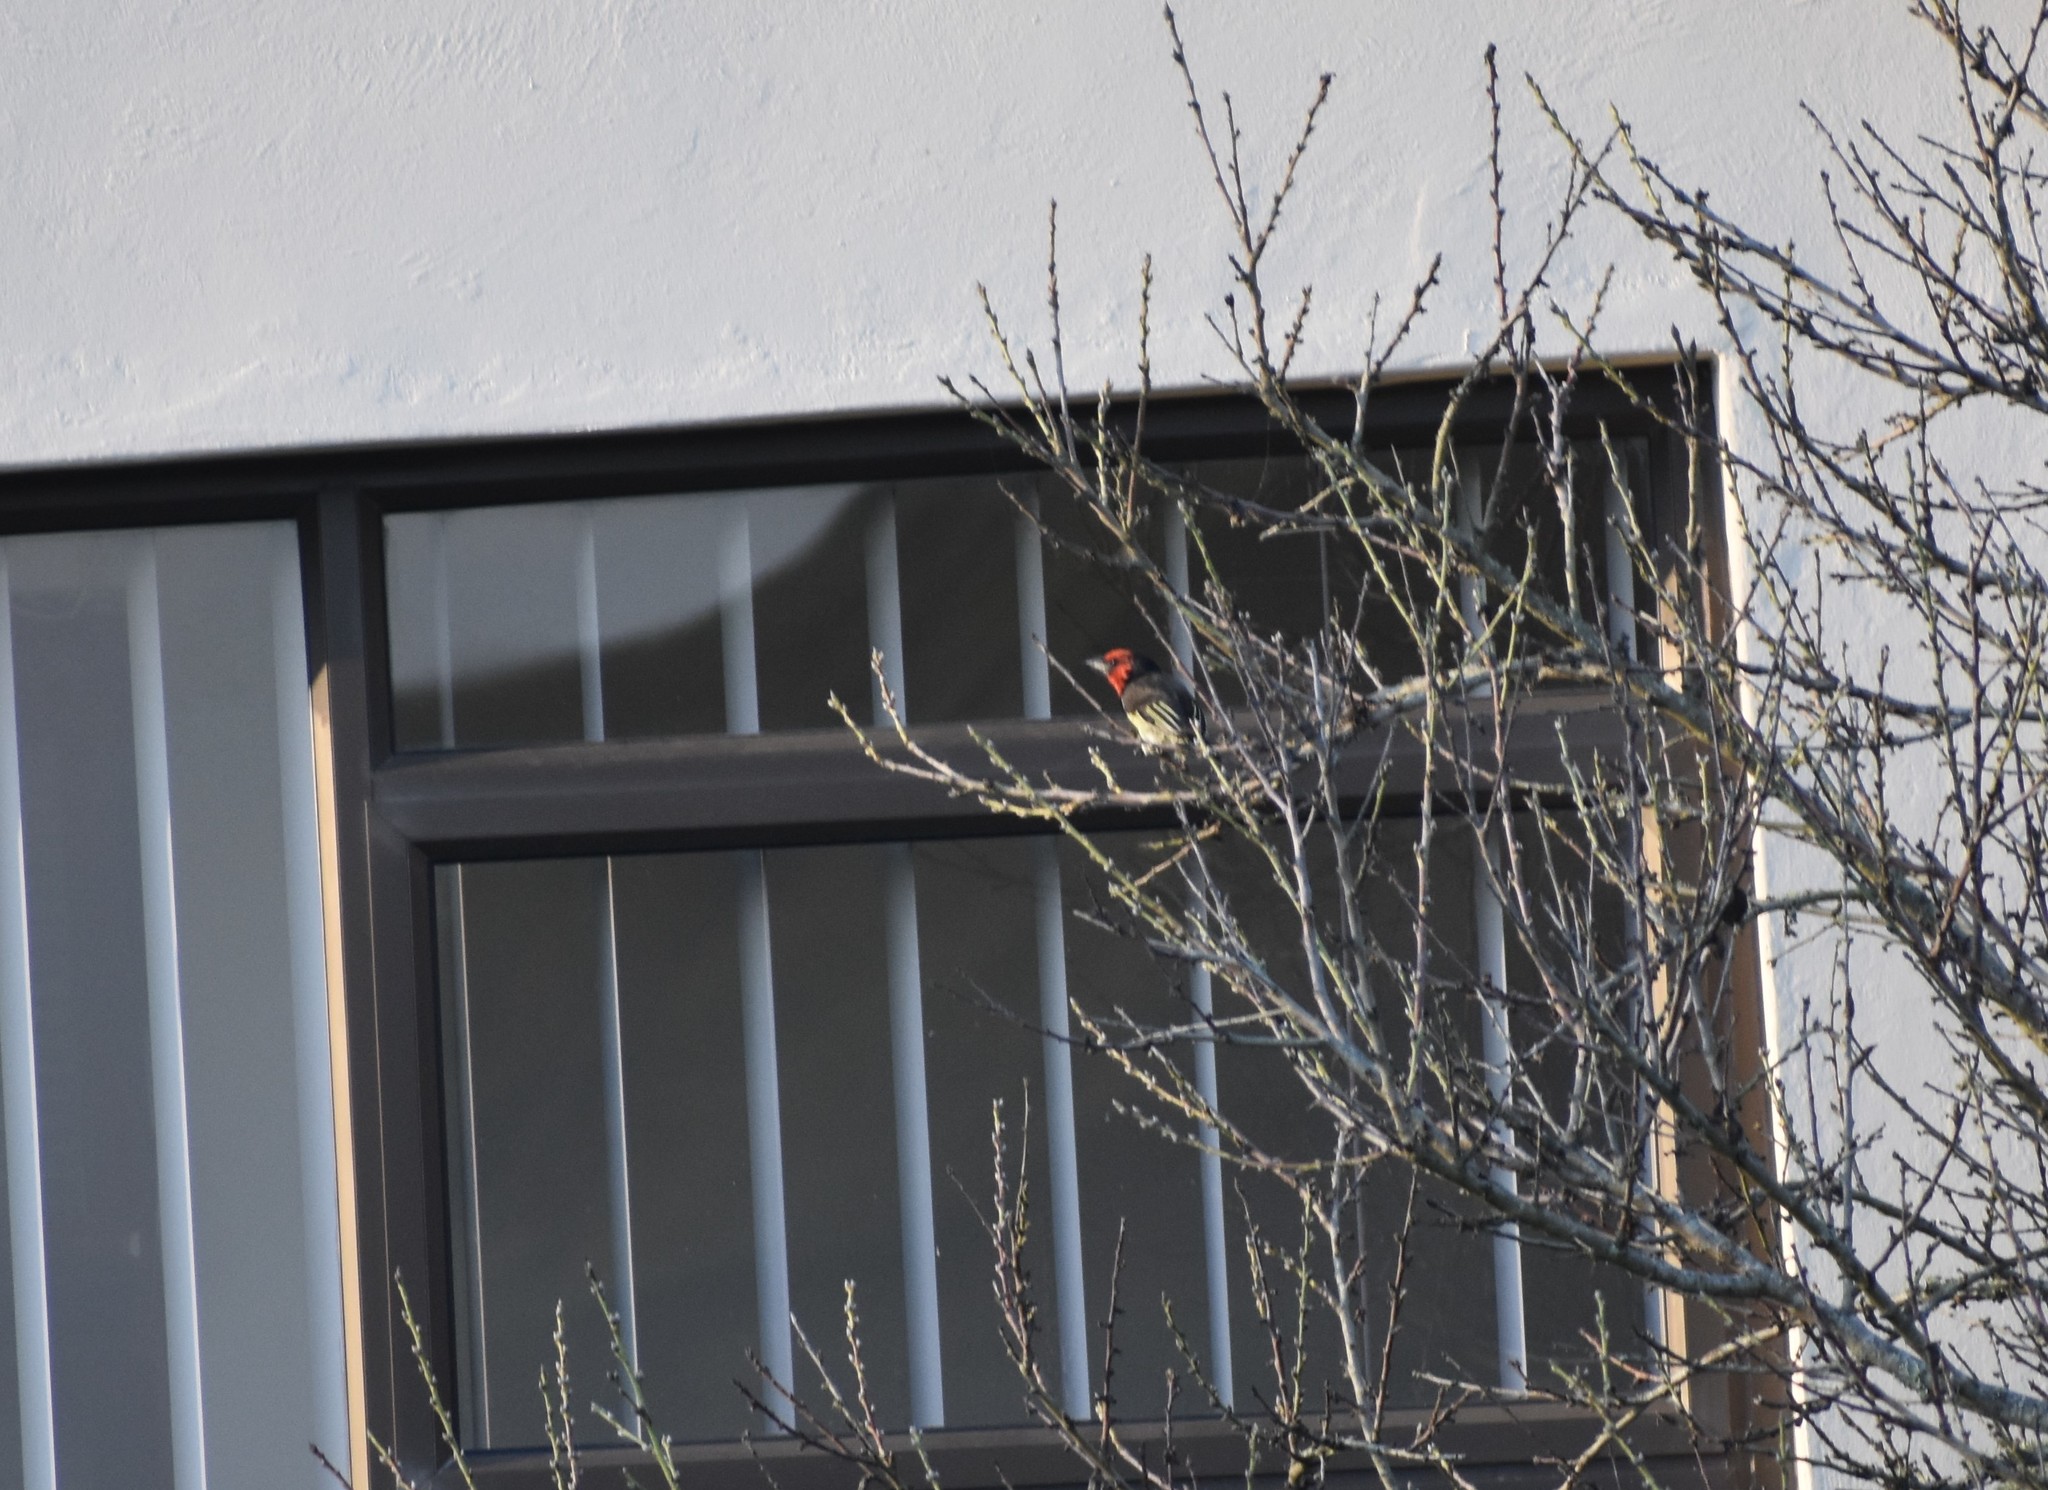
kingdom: Animalia
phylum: Chordata
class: Aves
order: Piciformes
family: Lybiidae
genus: Lybius
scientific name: Lybius torquatus
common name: Black-collared barbet
